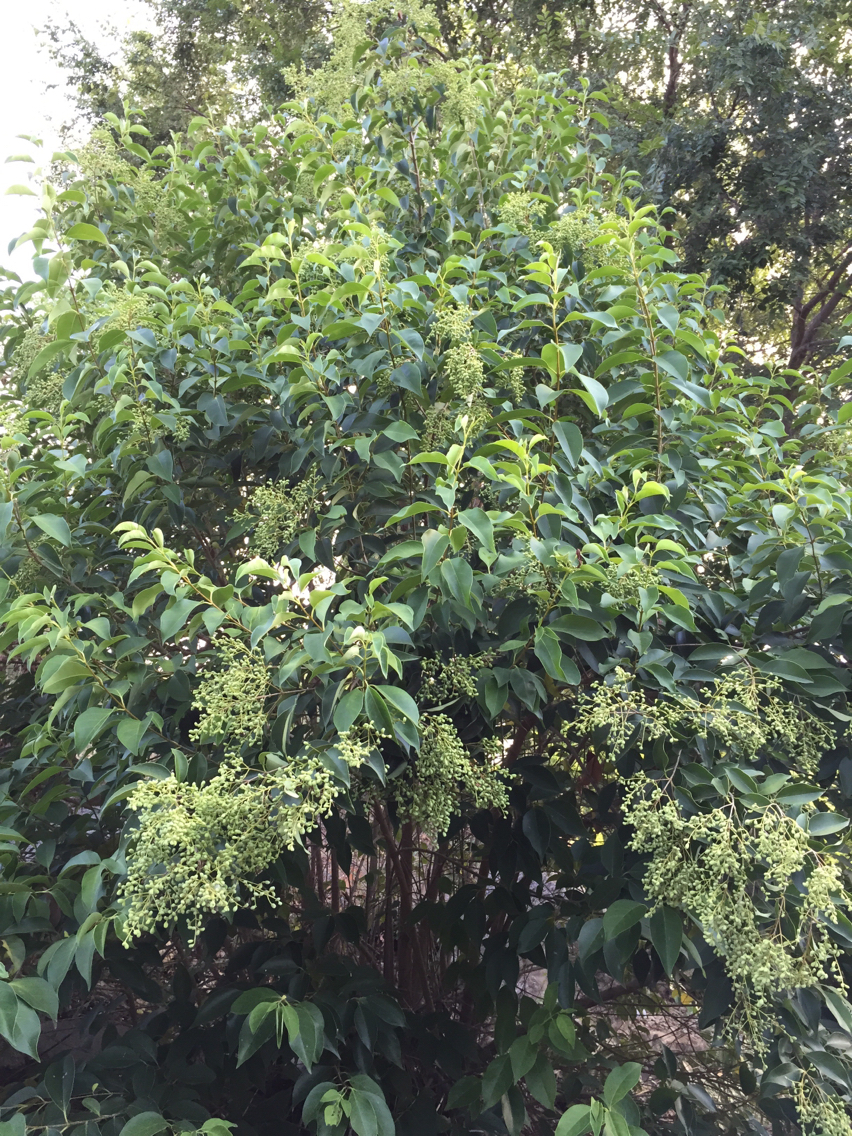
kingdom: Plantae
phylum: Tracheophyta
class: Magnoliopsida
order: Lamiales
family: Oleaceae
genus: Ligustrum
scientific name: Ligustrum lucidum
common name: Glossy privet
